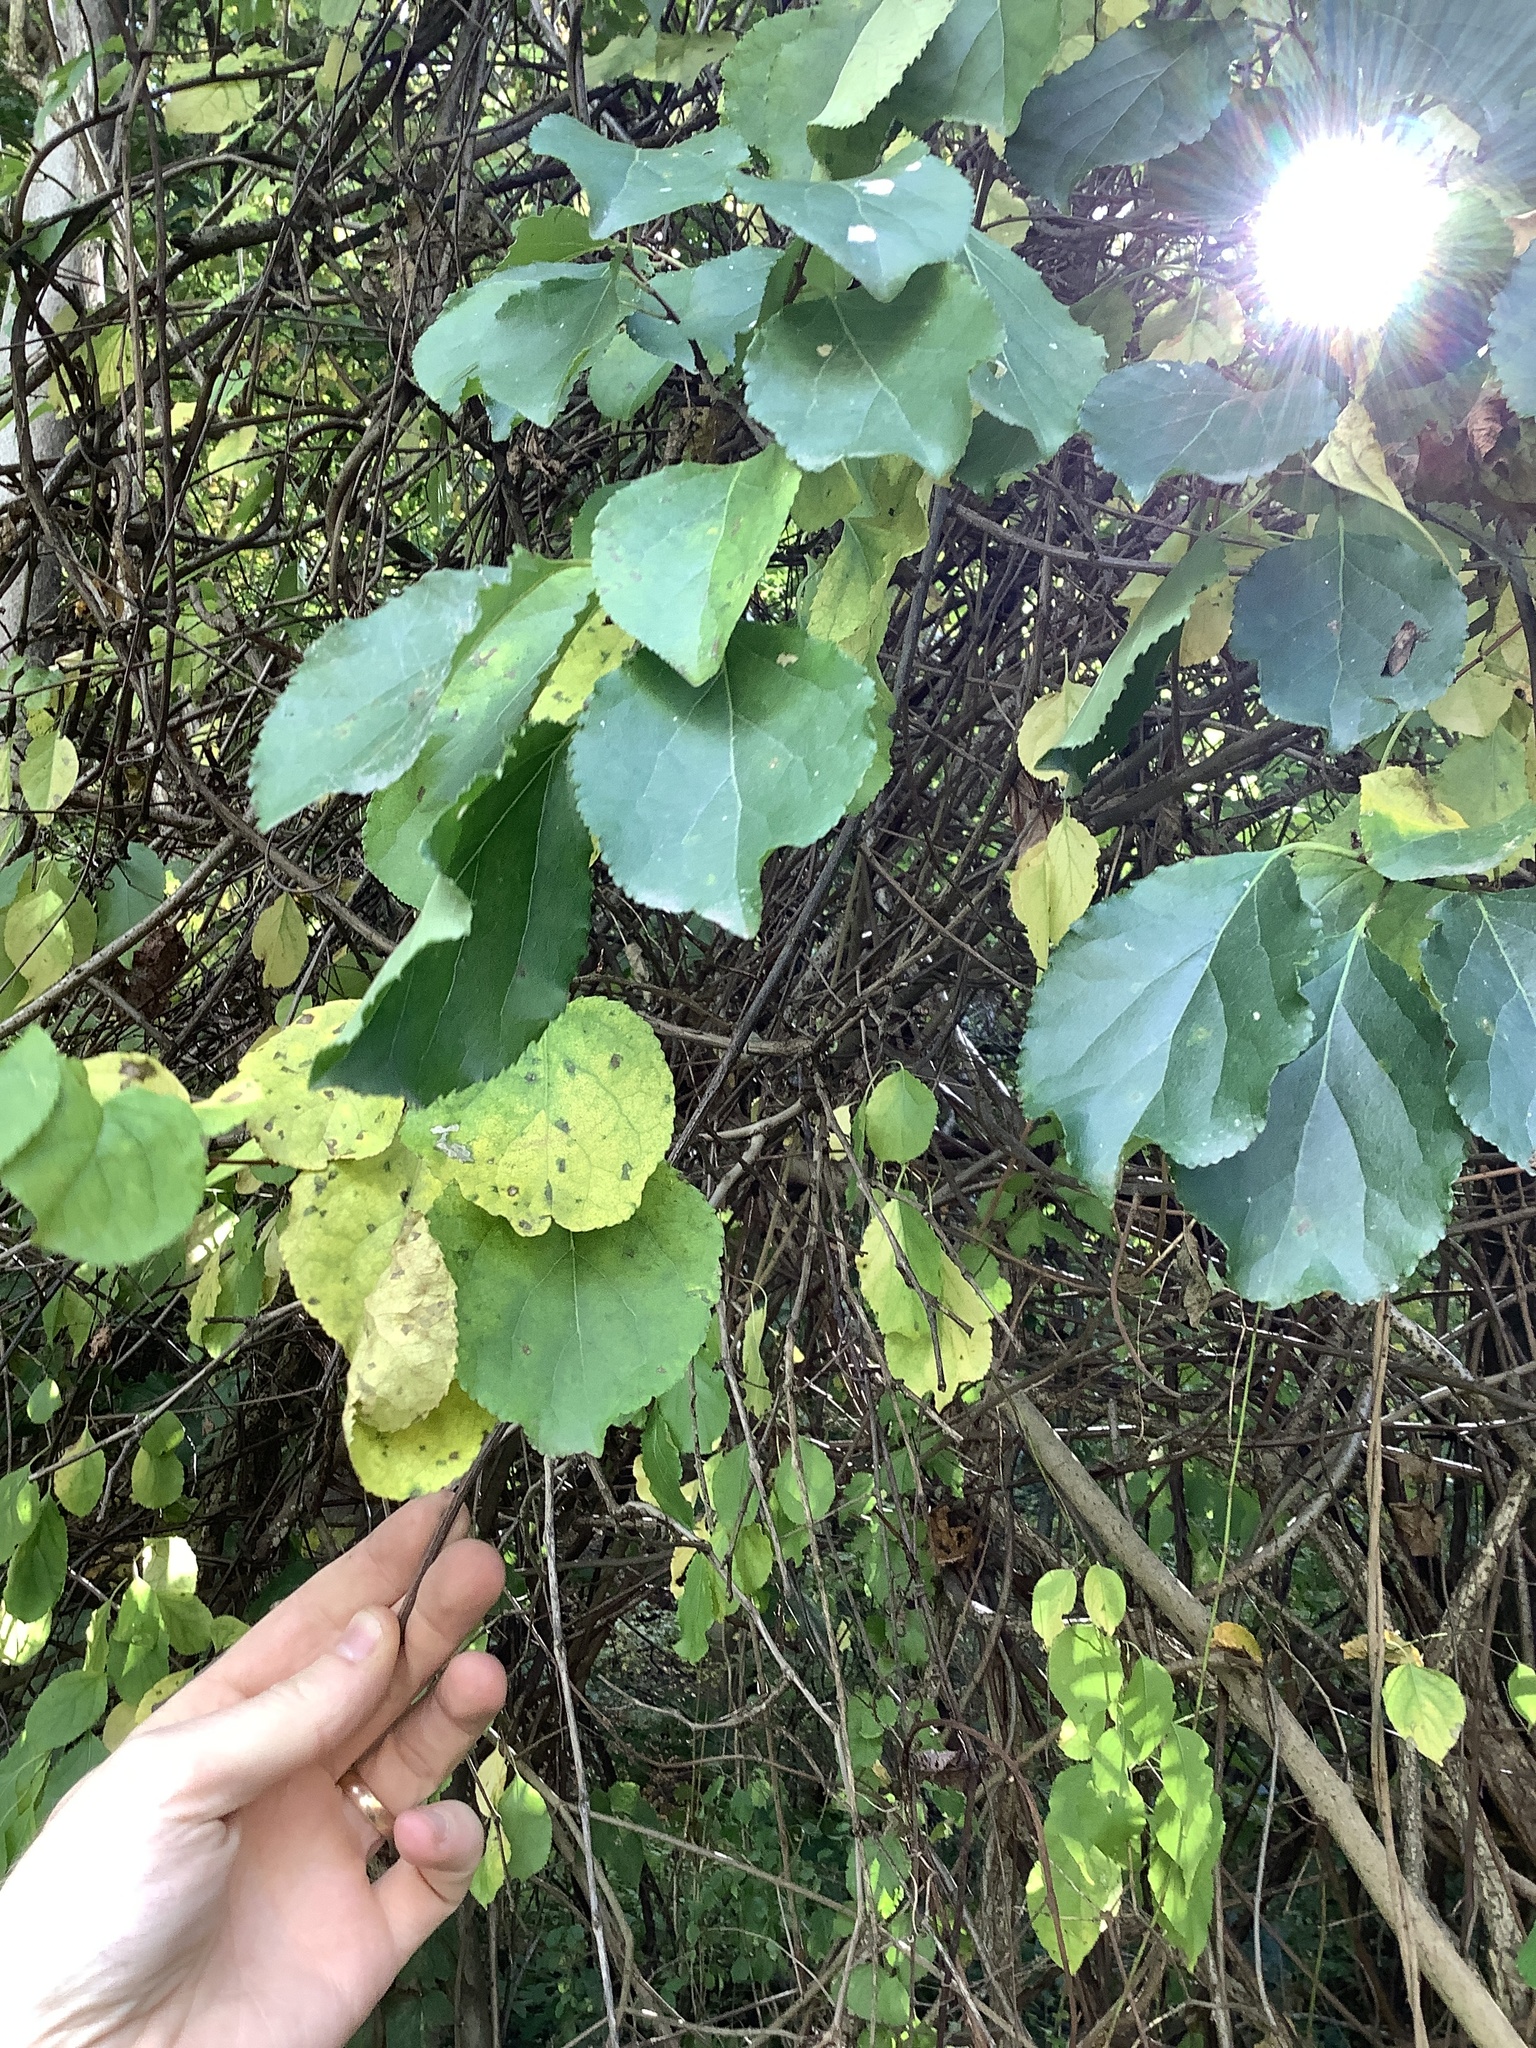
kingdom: Plantae
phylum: Tracheophyta
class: Magnoliopsida
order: Celastrales
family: Celastraceae
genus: Celastrus
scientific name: Celastrus orbiculatus
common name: Oriental bittersweet
